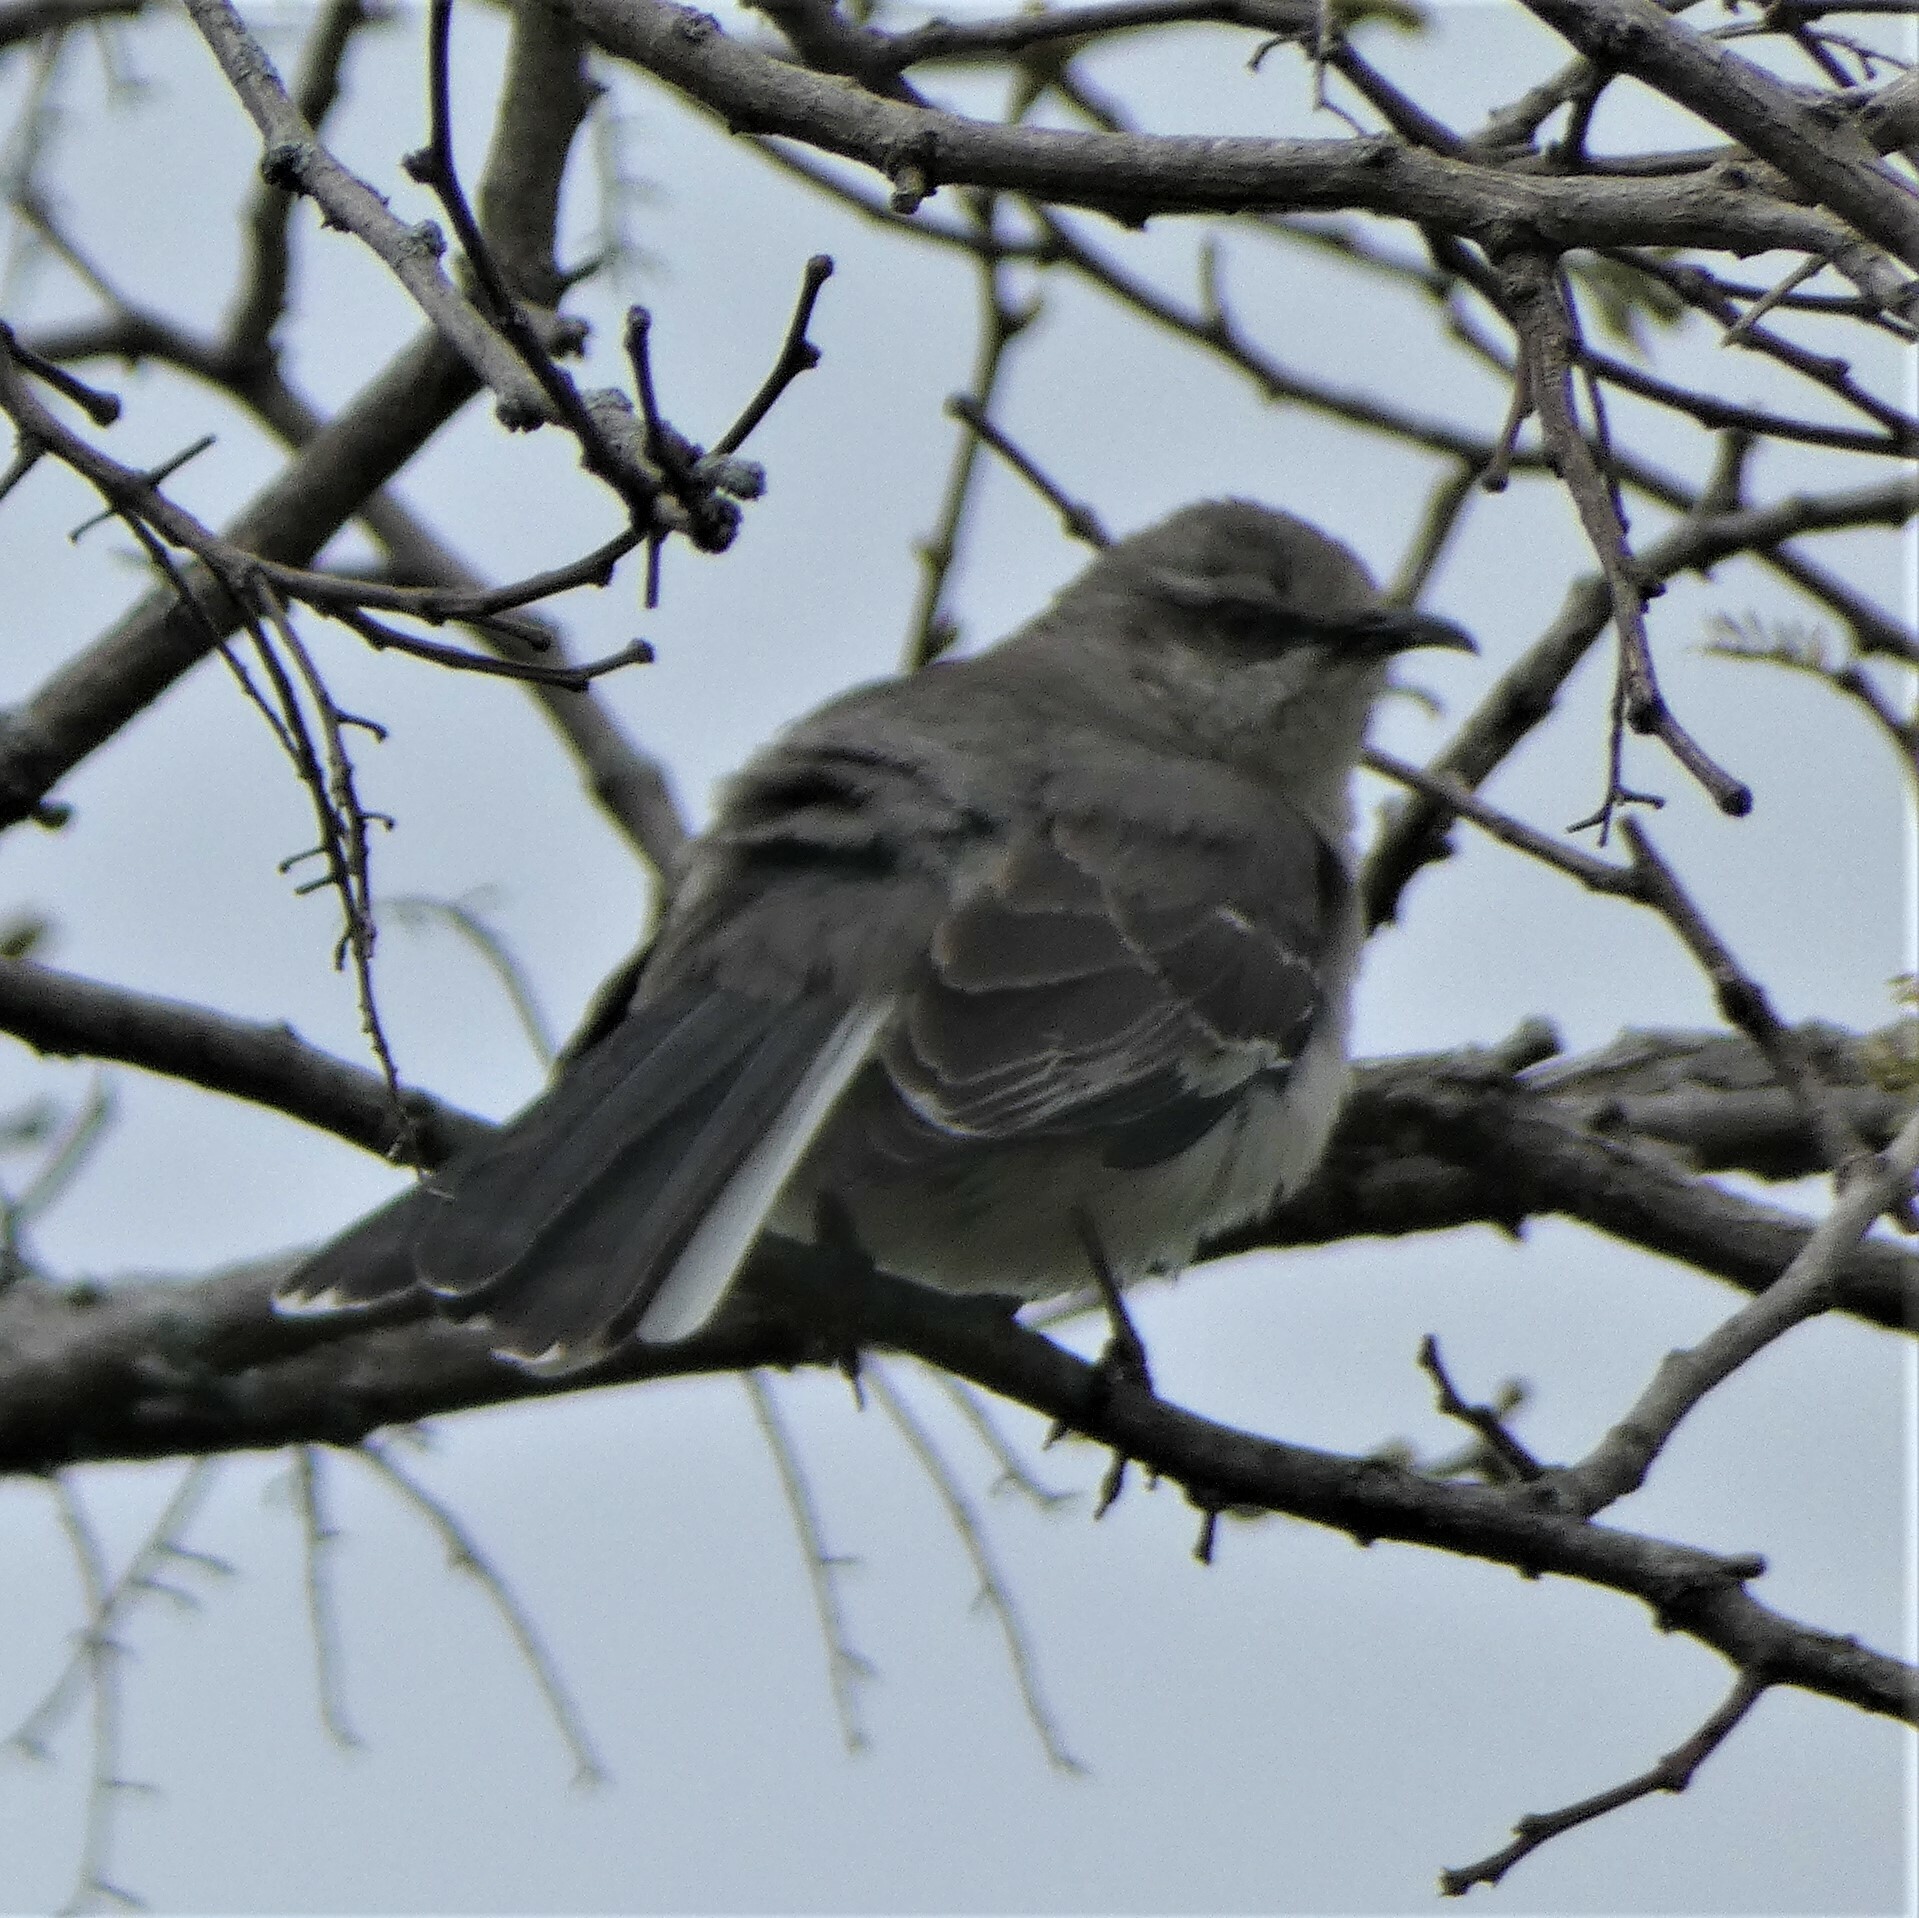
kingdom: Animalia
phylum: Chordata
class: Aves
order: Passeriformes
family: Mimidae
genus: Mimus
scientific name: Mimus polyglottos
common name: Northern mockingbird
